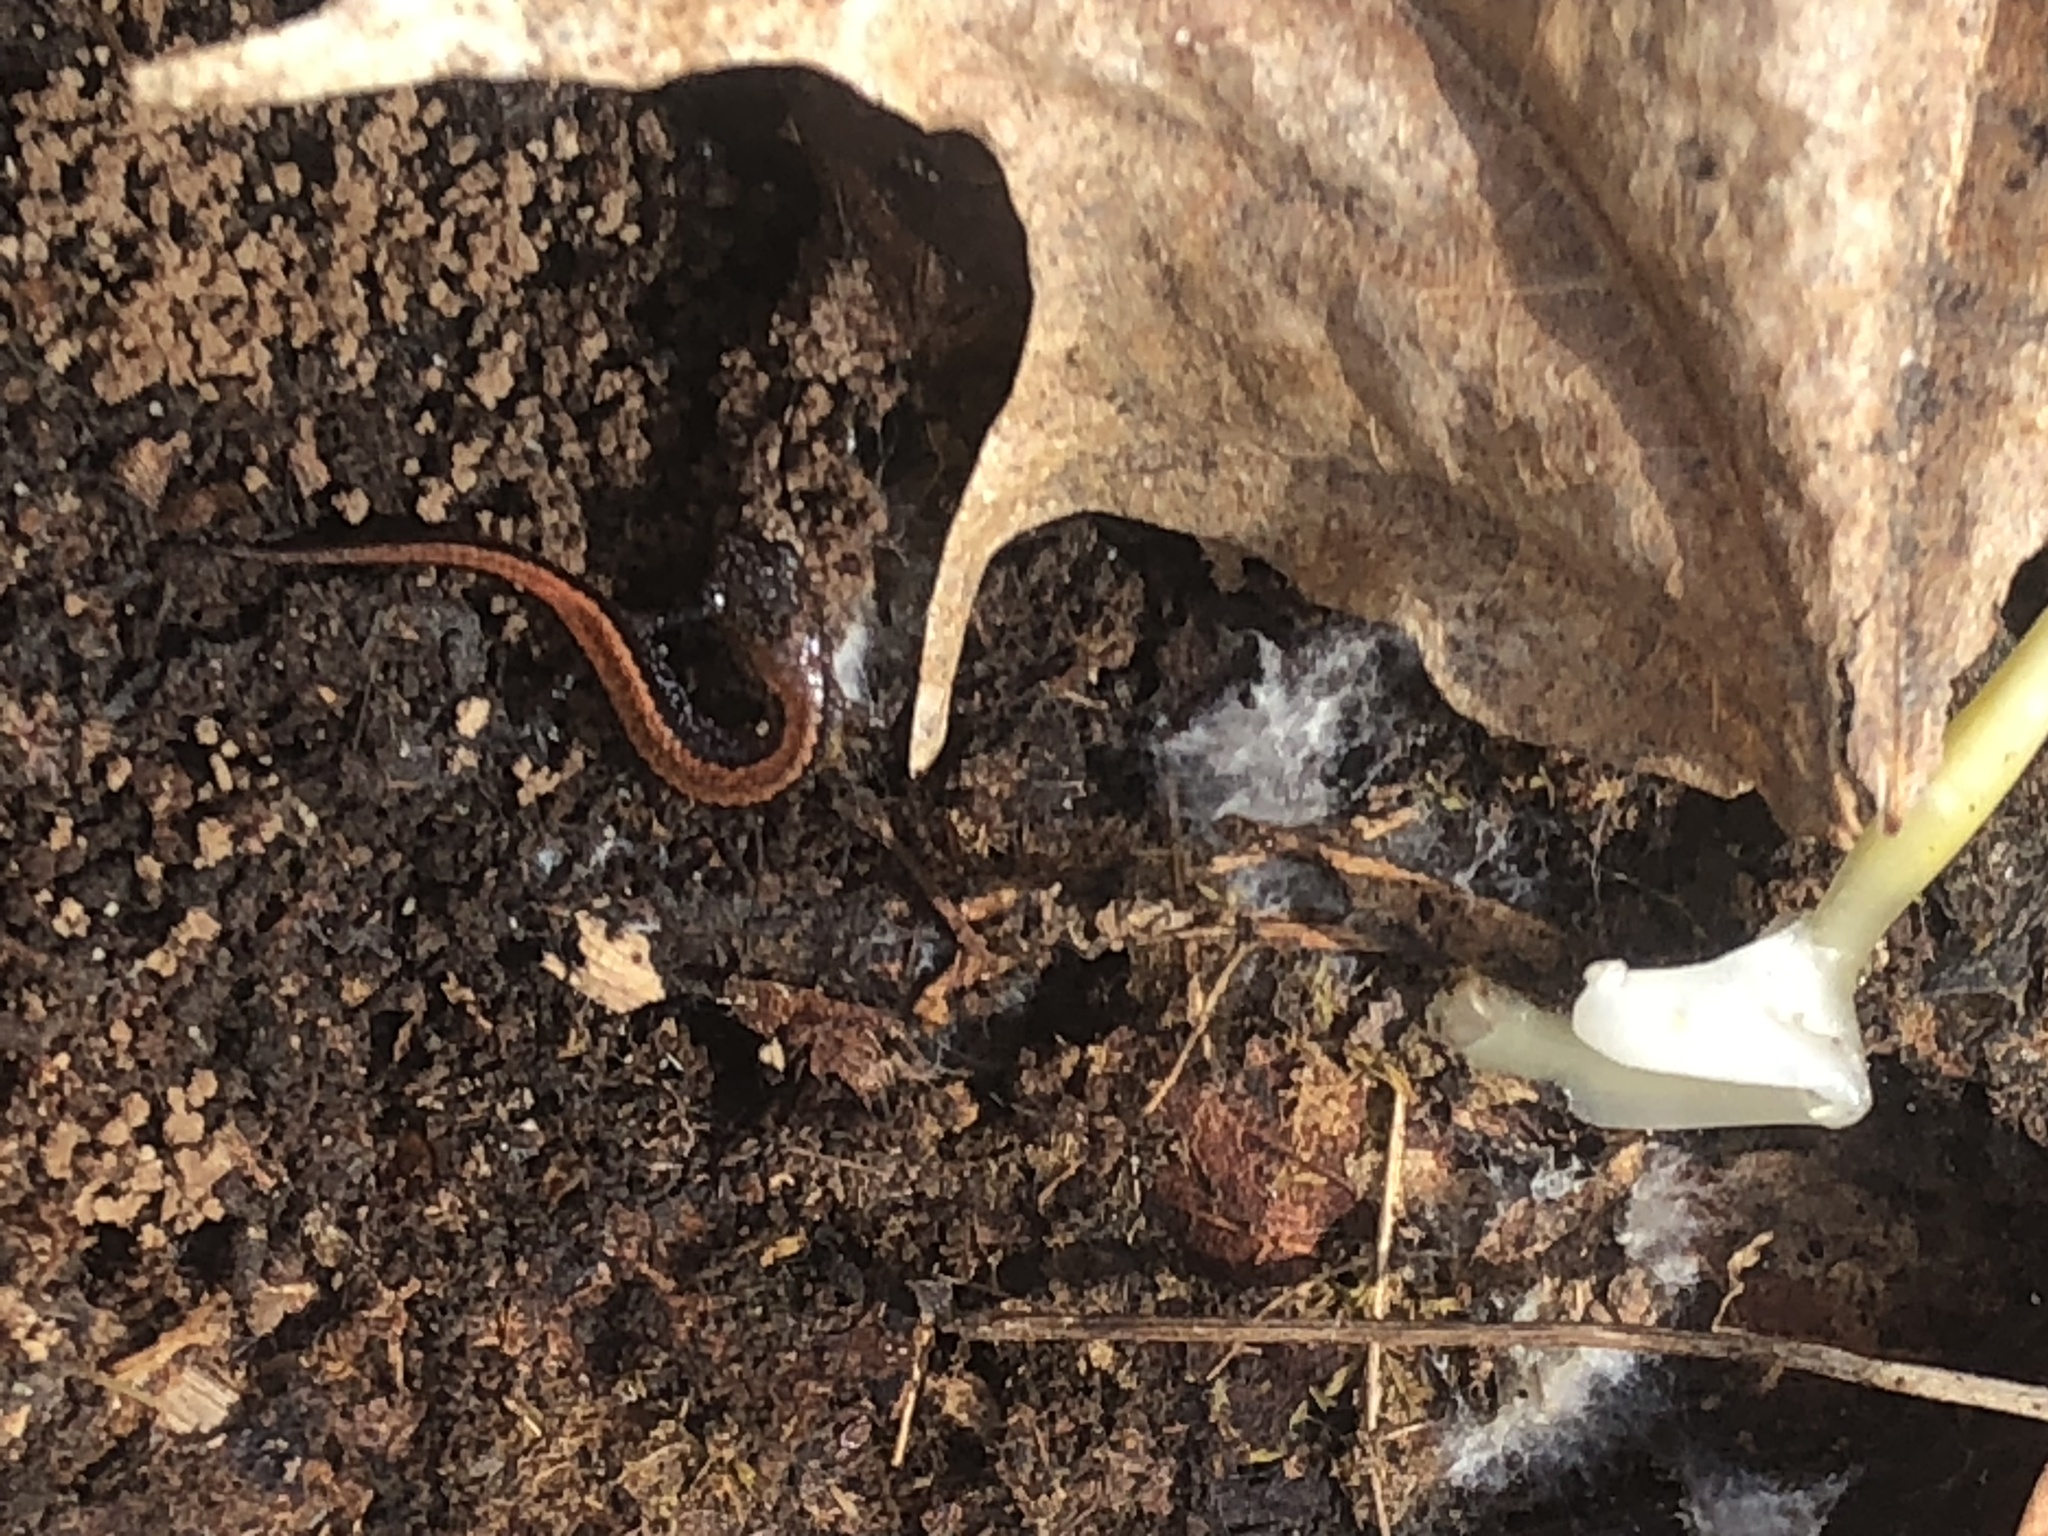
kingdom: Animalia
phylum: Chordata
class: Amphibia
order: Caudata
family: Plethodontidae
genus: Plethodon
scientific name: Plethodon cinereus
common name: Redback salamander
